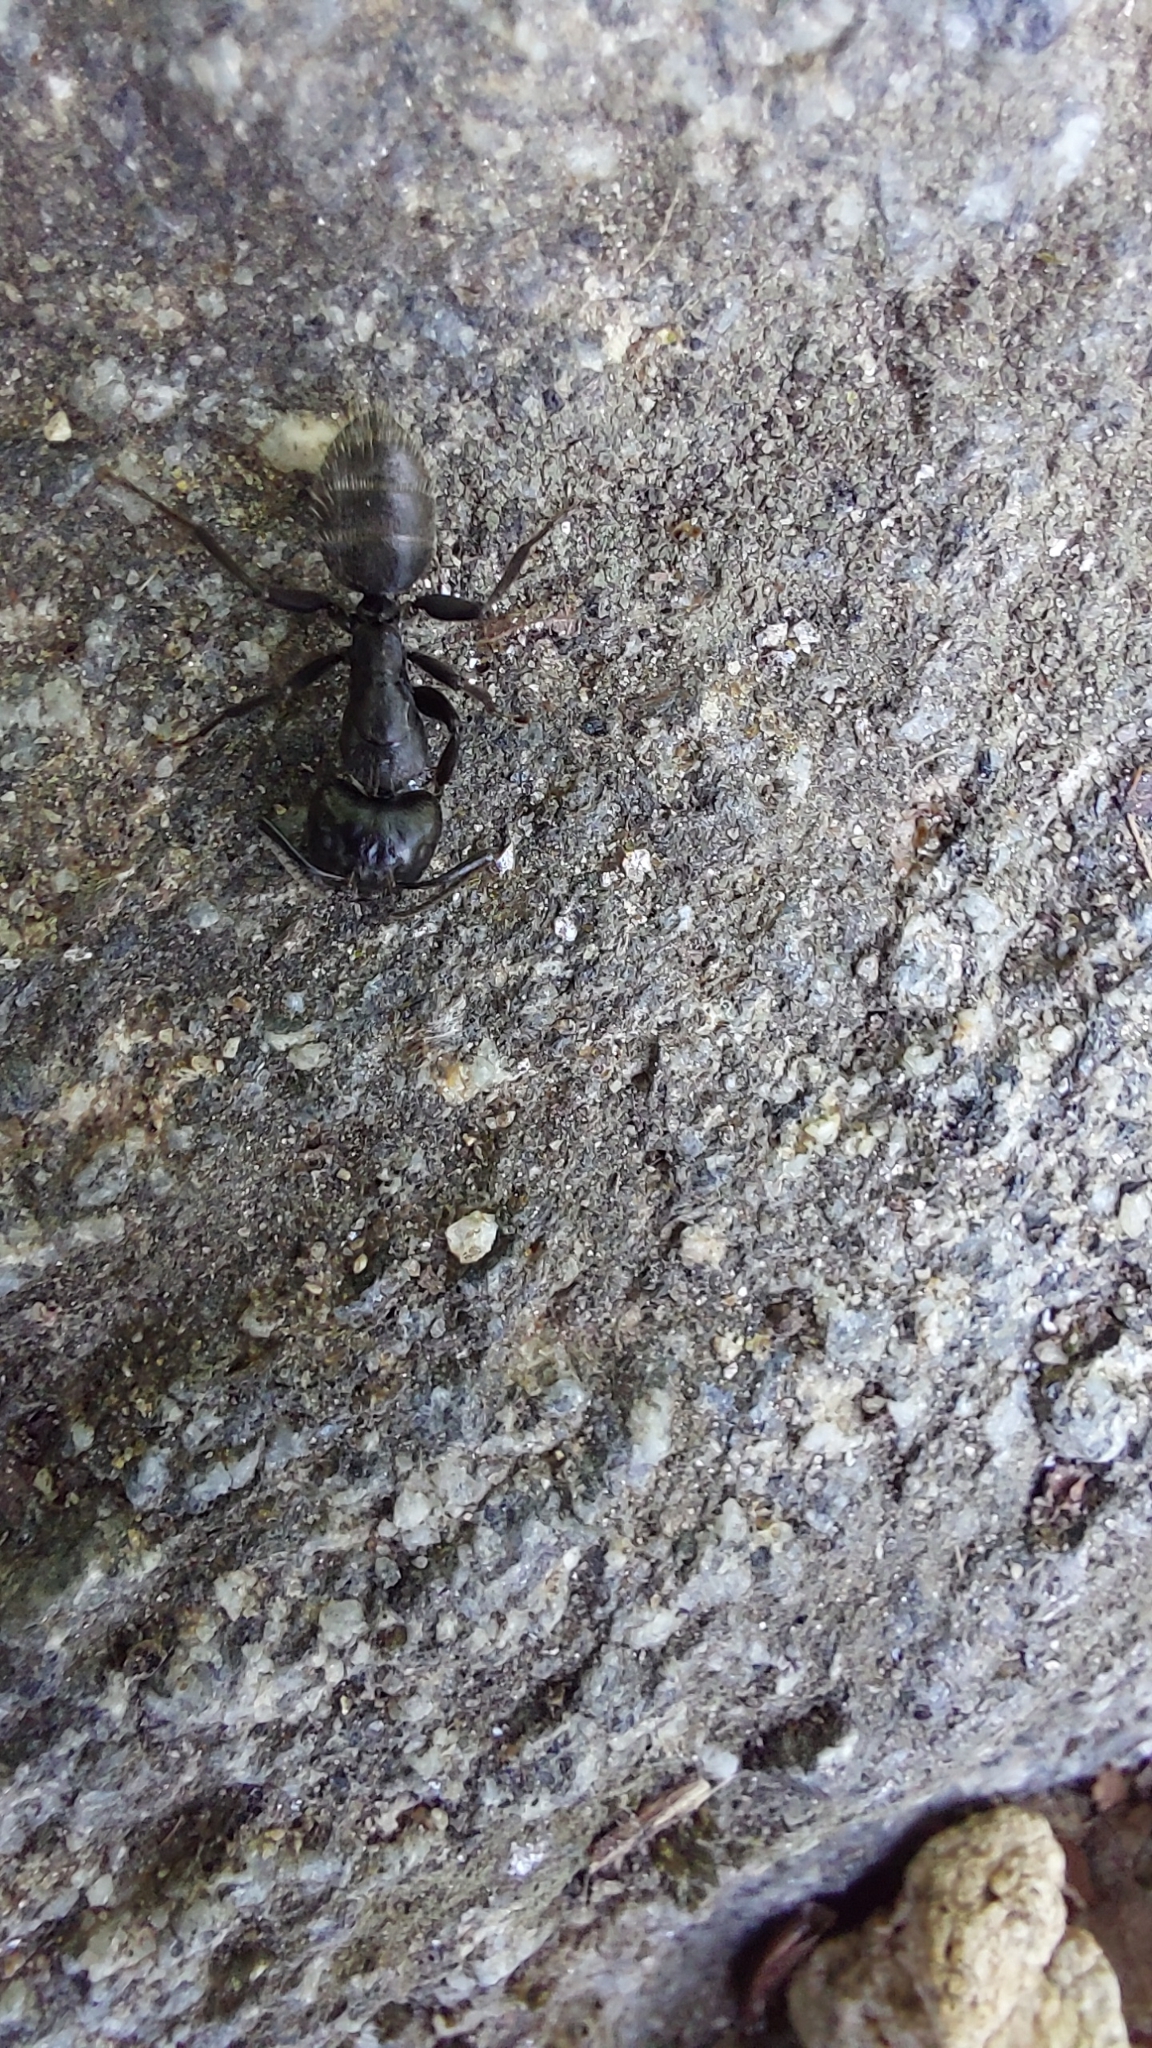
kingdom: Animalia
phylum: Arthropoda
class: Insecta
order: Hymenoptera
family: Formicidae
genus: Camponotus
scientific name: Camponotus vagus
